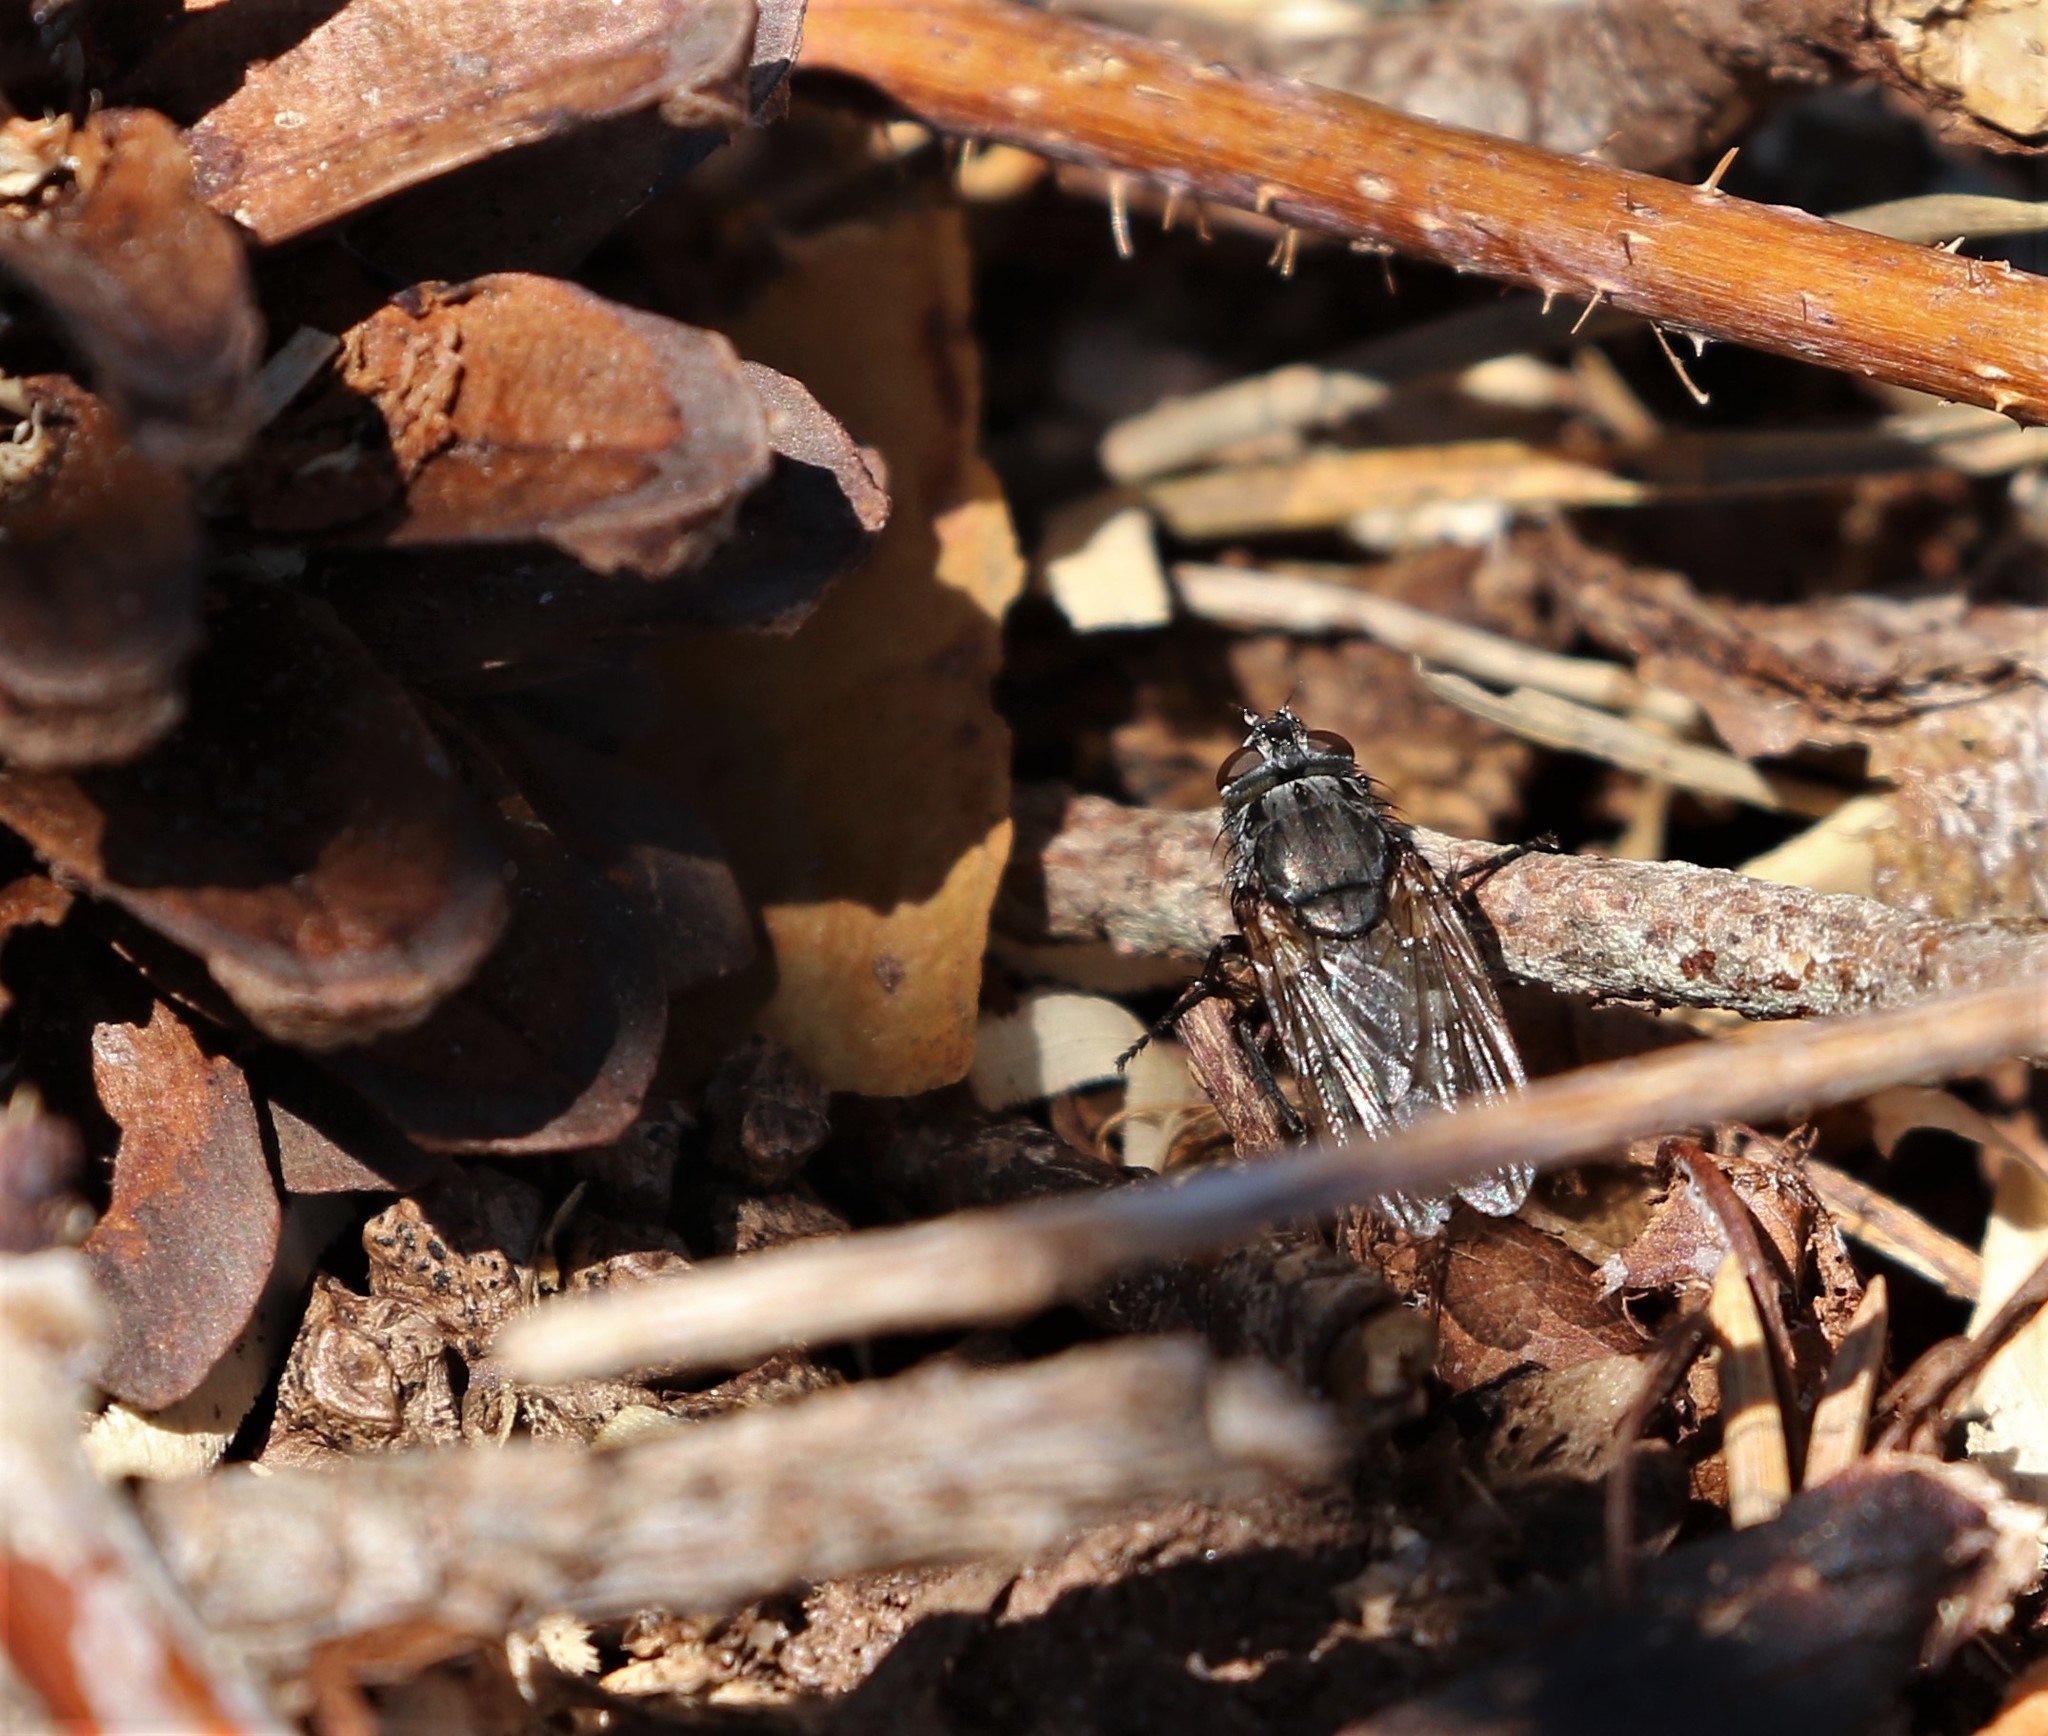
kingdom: Animalia
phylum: Arthropoda
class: Insecta
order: Diptera
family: Polleniidae
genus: Pollenia
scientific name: Pollenia vagabunda
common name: Vagabund cluster fly
